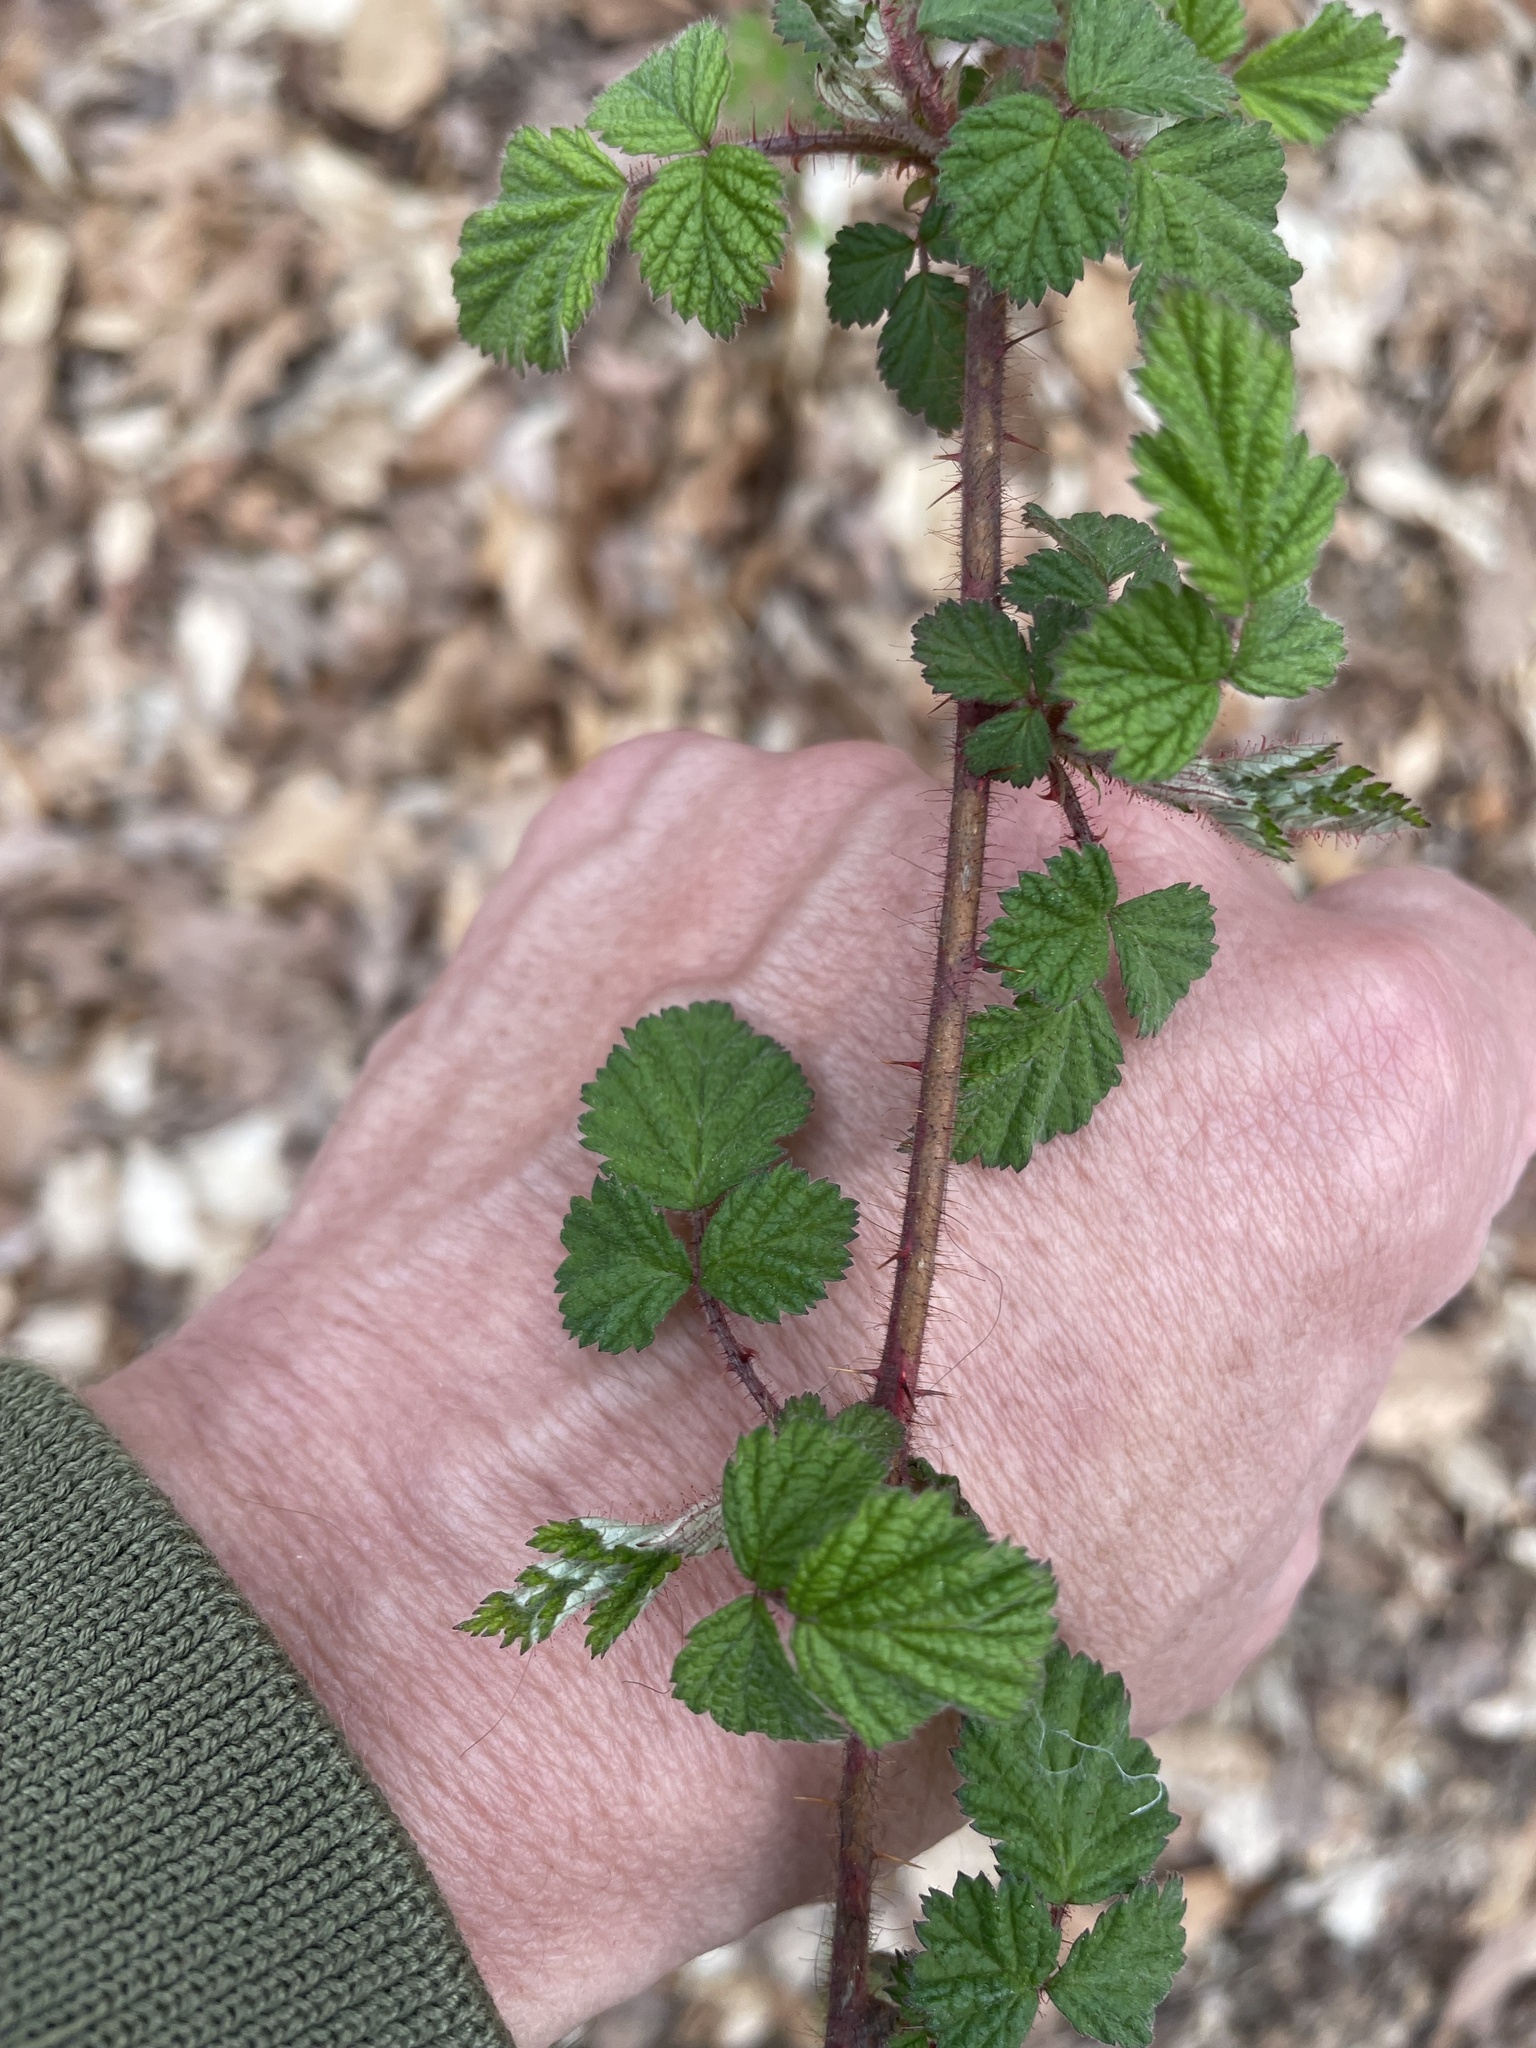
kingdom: Plantae
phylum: Tracheophyta
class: Magnoliopsida
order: Rosales
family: Rosaceae
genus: Rubus
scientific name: Rubus phoenicolasius
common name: Japanese wineberry
